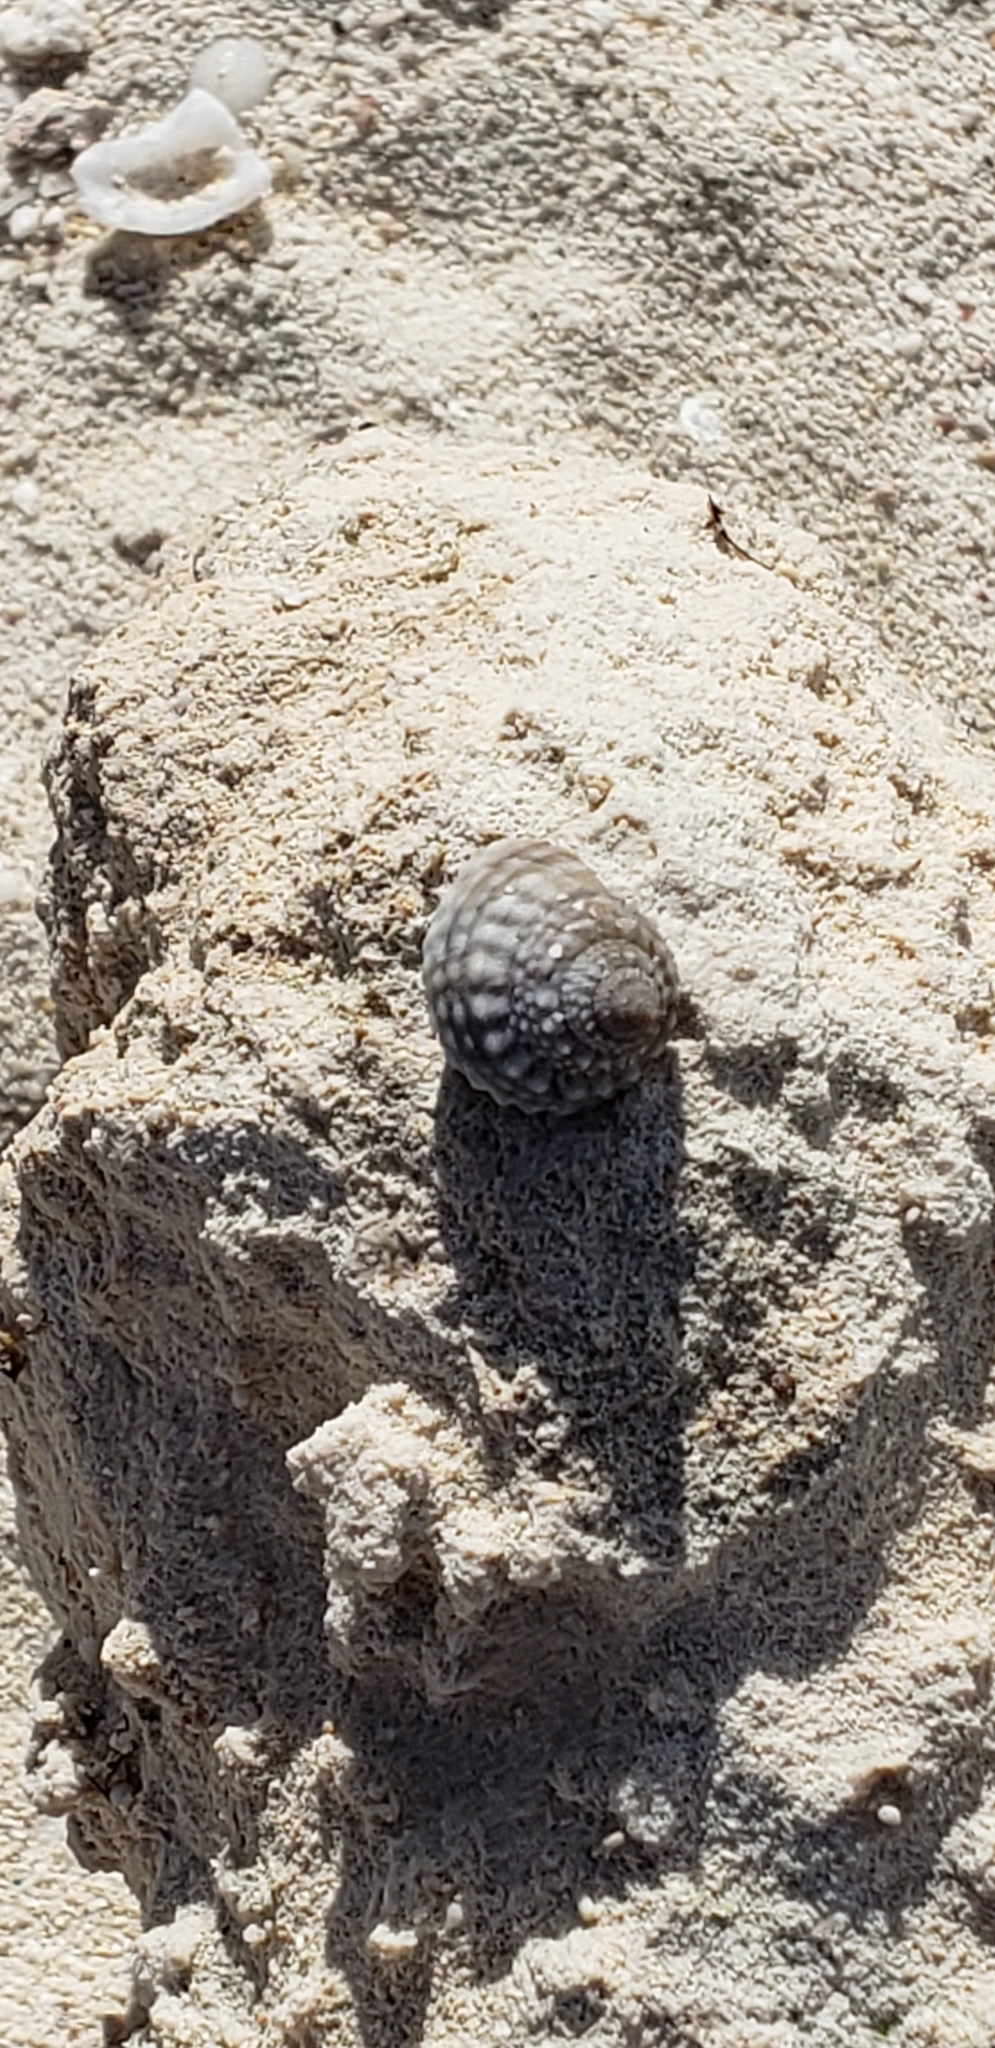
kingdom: Animalia
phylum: Mollusca
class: Gastropoda
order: Littorinimorpha
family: Littorinidae
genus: Cenchritis
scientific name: Cenchritis muricatus
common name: Beaded periwinkle
